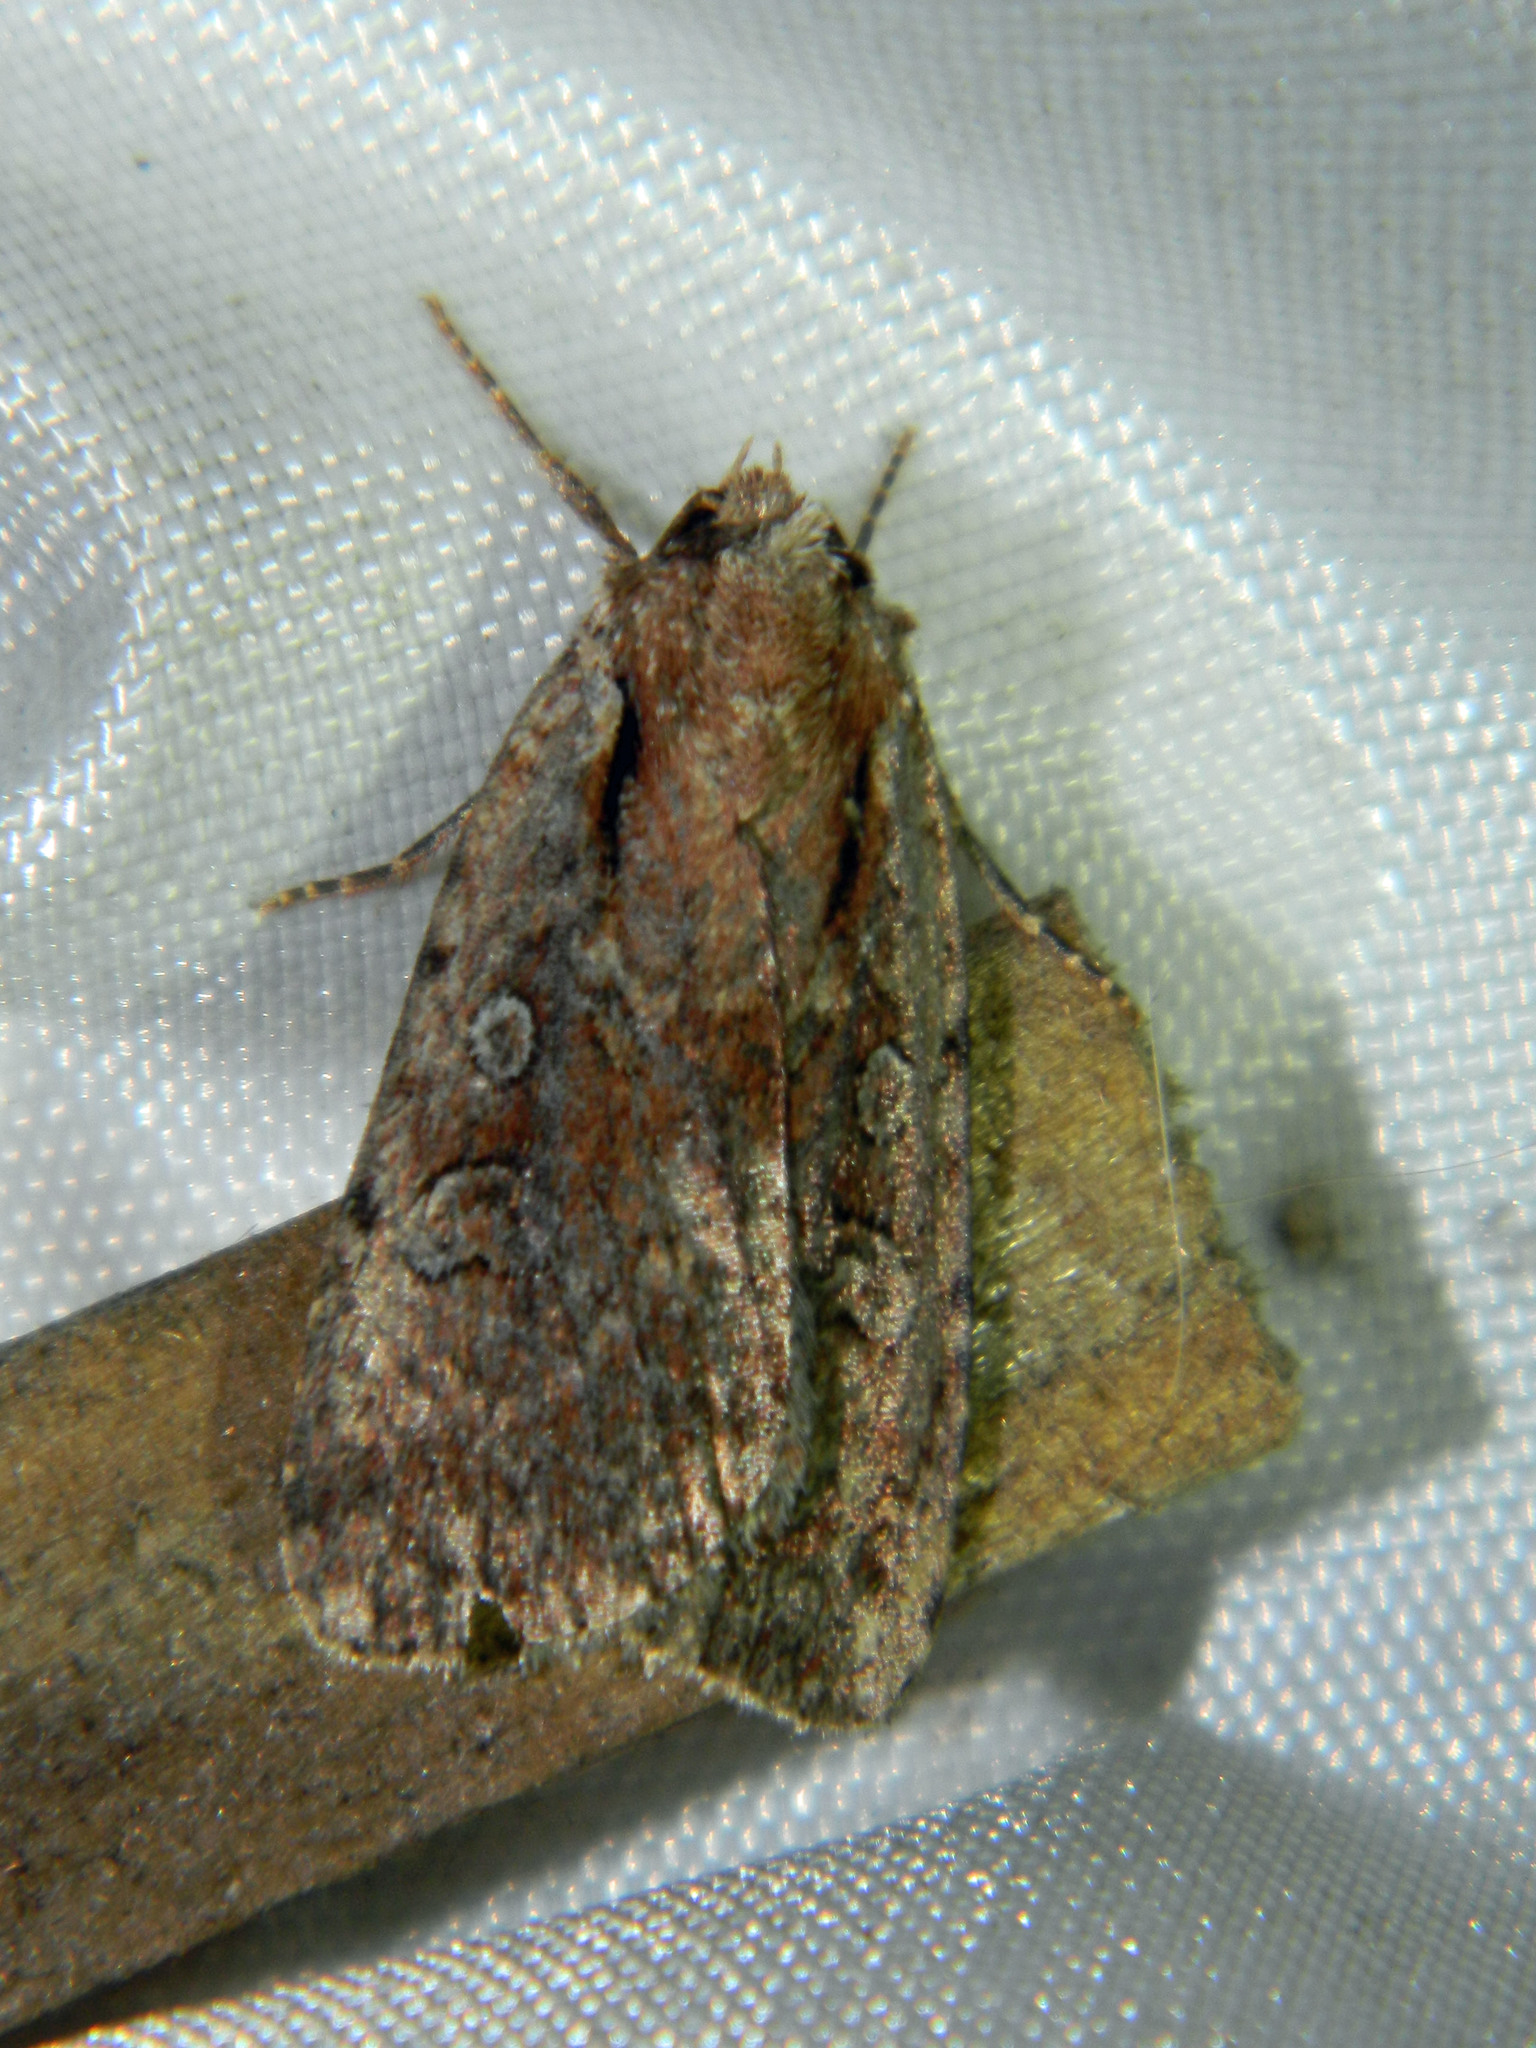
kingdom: Animalia
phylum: Arthropoda
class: Insecta
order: Lepidoptera
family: Noctuidae
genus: Eueretagrotis
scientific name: Eueretagrotis attentus
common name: Attentive dart
